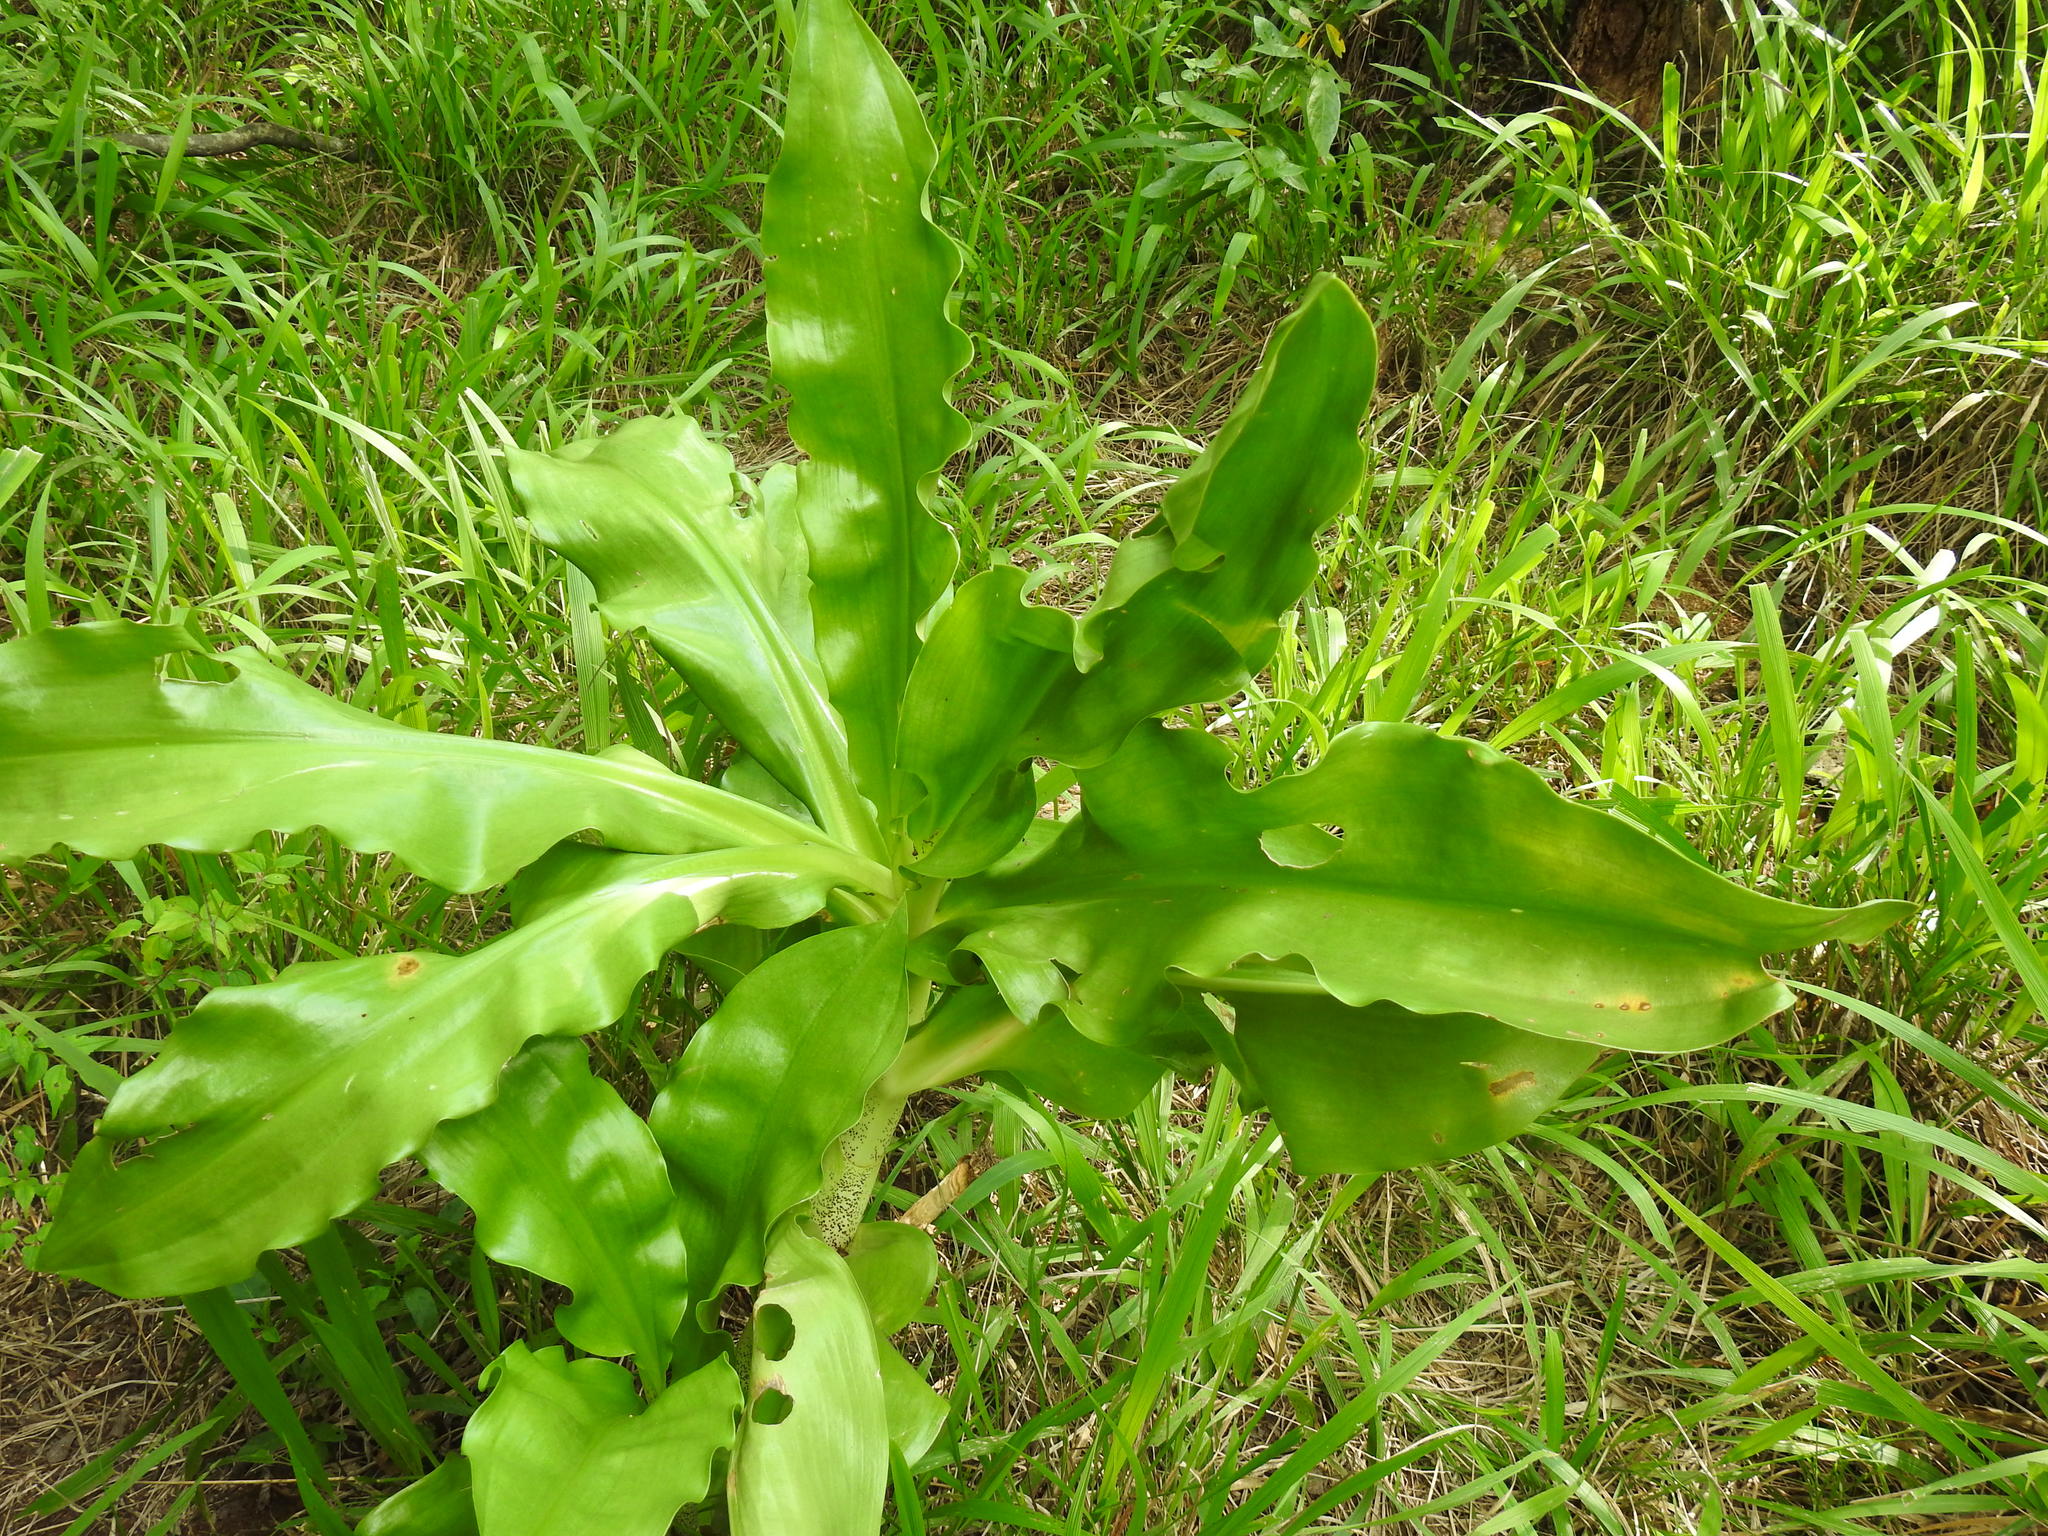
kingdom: Plantae
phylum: Tracheophyta
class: Liliopsida
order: Asparagales
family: Amaryllidaceae
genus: Scadoxus
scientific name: Scadoxus puniceus
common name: Royal-paintbrush
